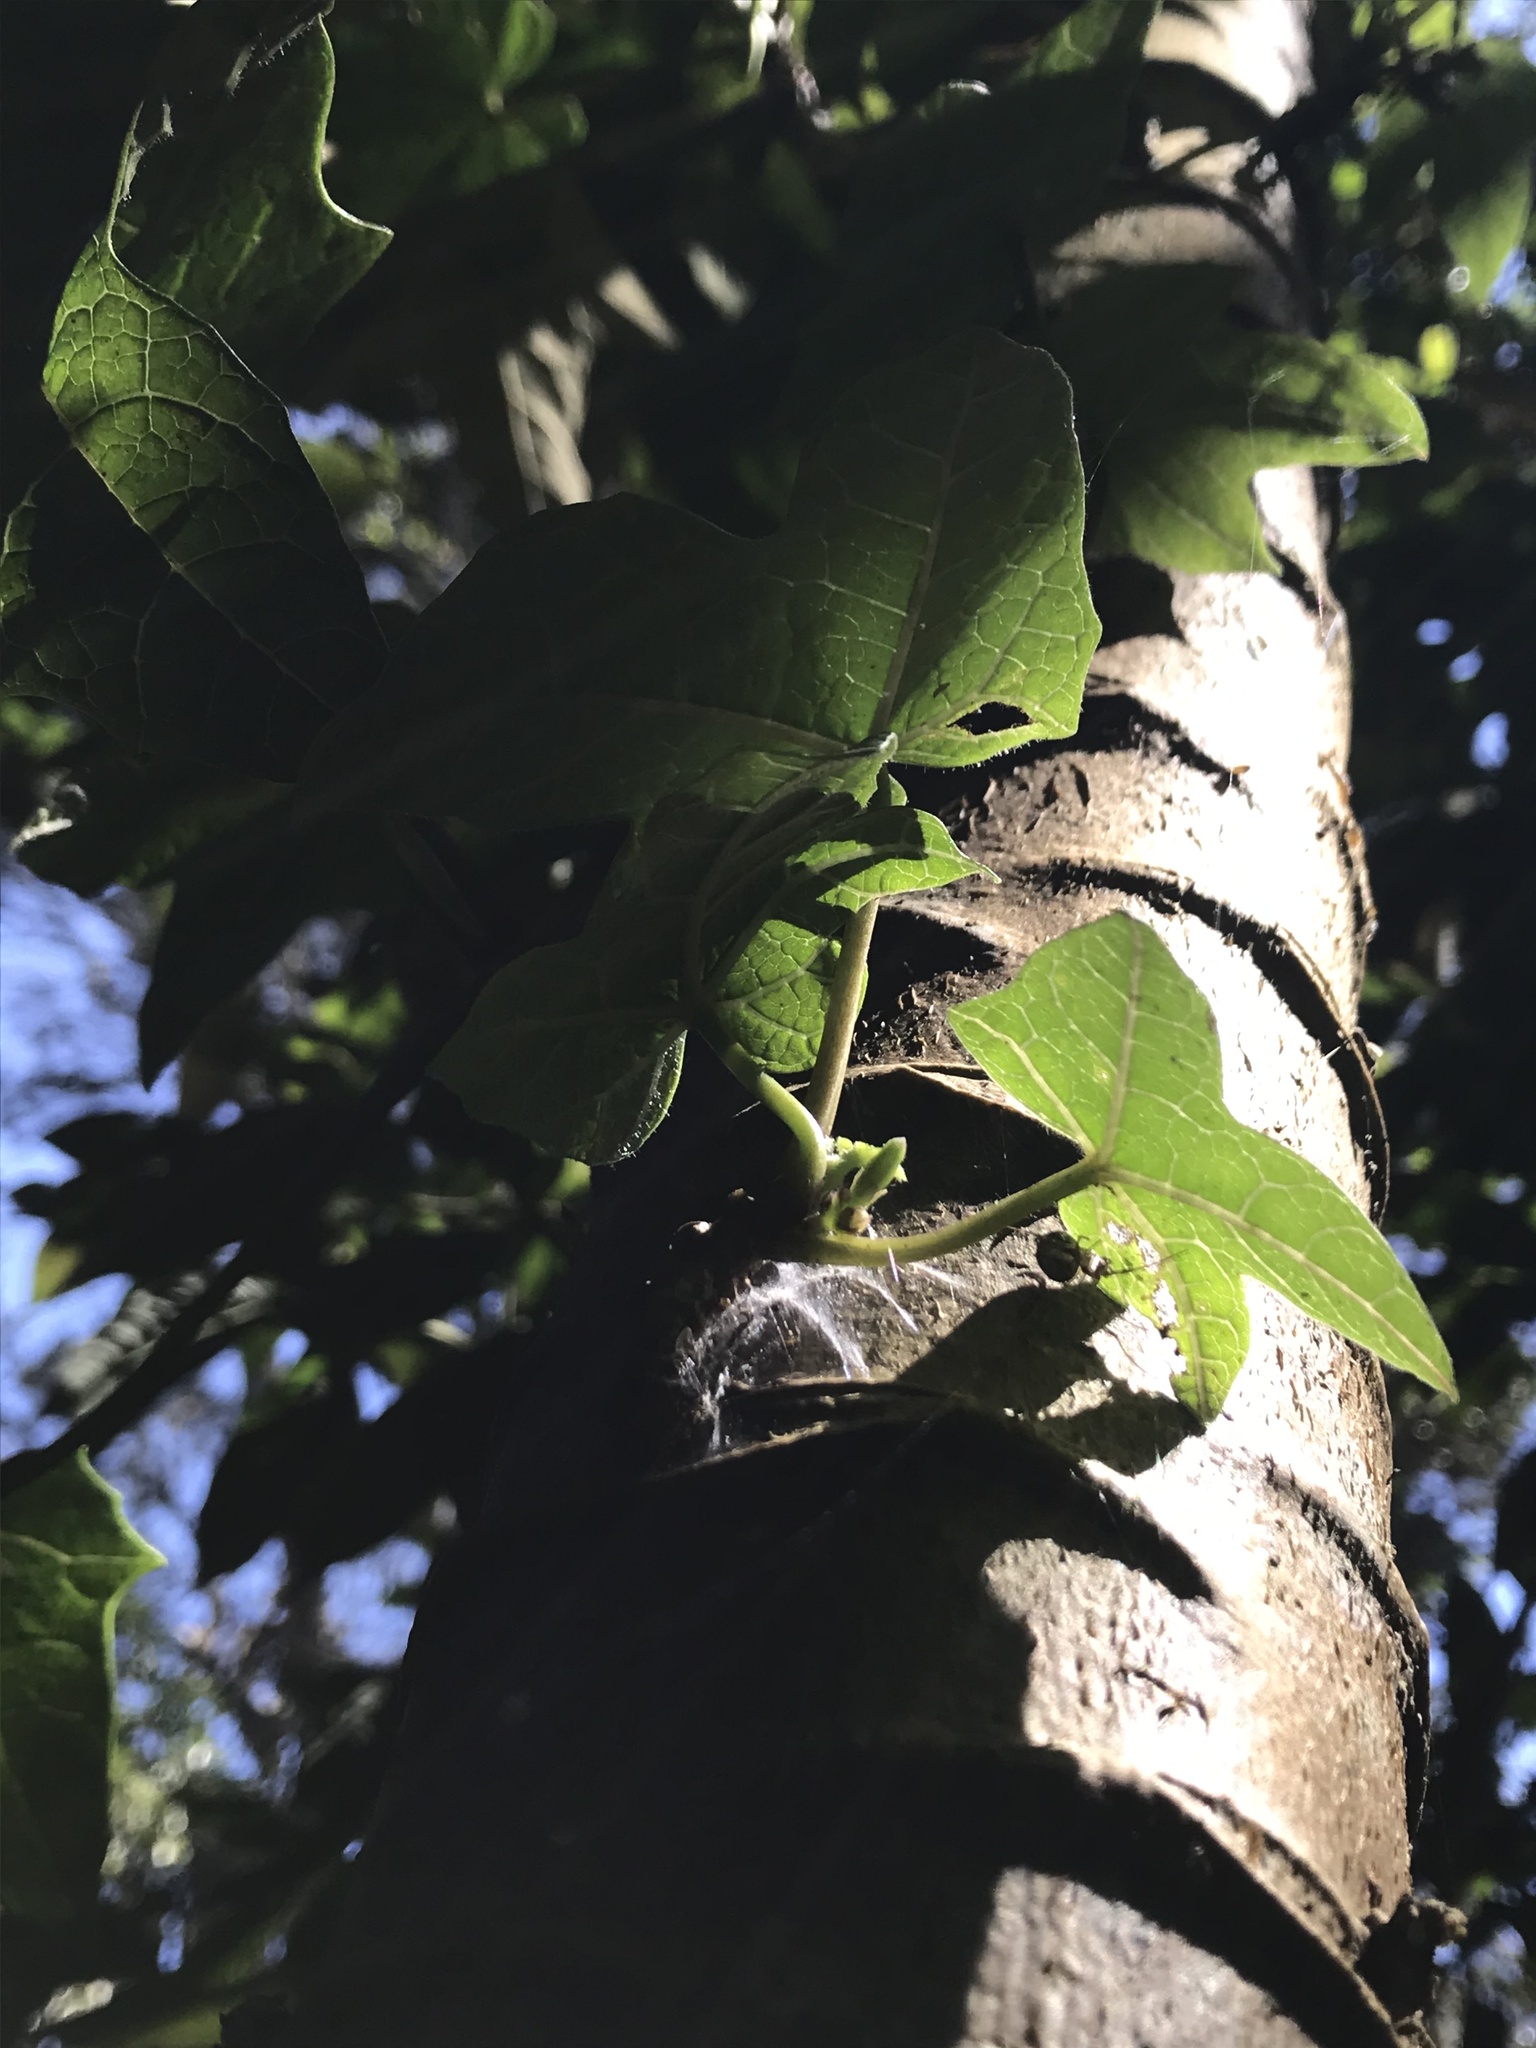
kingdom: Plantae
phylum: Tracheophyta
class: Magnoliopsida
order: Brassicales
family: Caricaceae
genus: Vasconcellea
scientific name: Vasconcellea pubescens
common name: Mountain papaya
